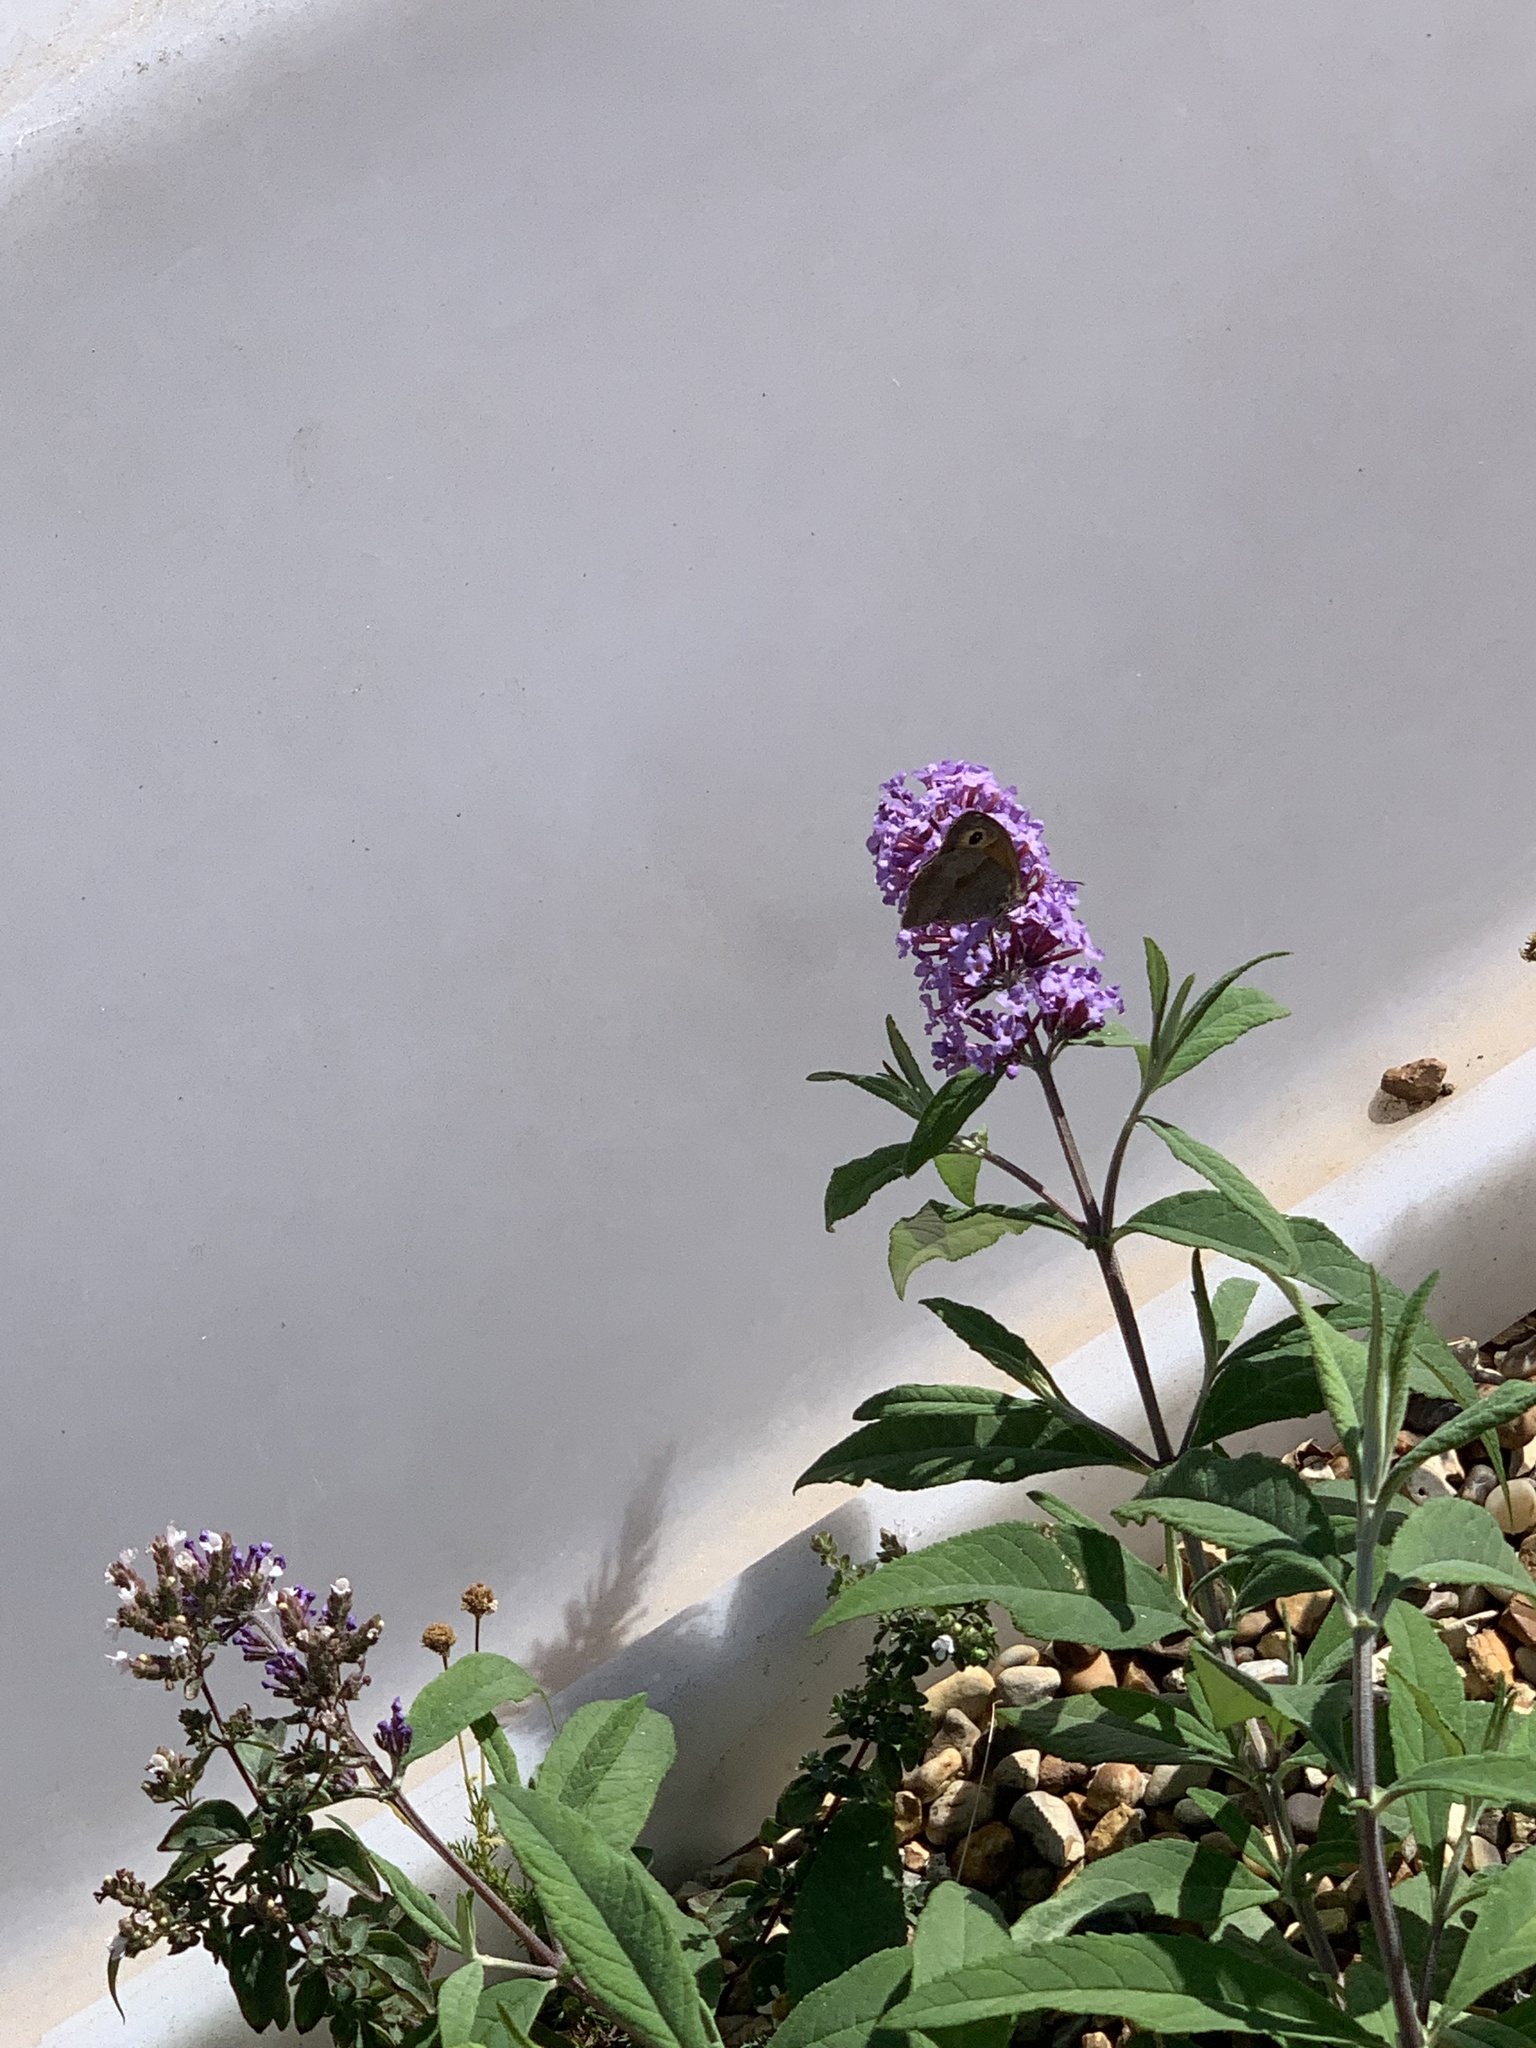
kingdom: Animalia
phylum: Arthropoda
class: Insecta
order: Lepidoptera
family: Nymphalidae
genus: Maniola
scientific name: Maniola jurtina
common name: Meadow brown
